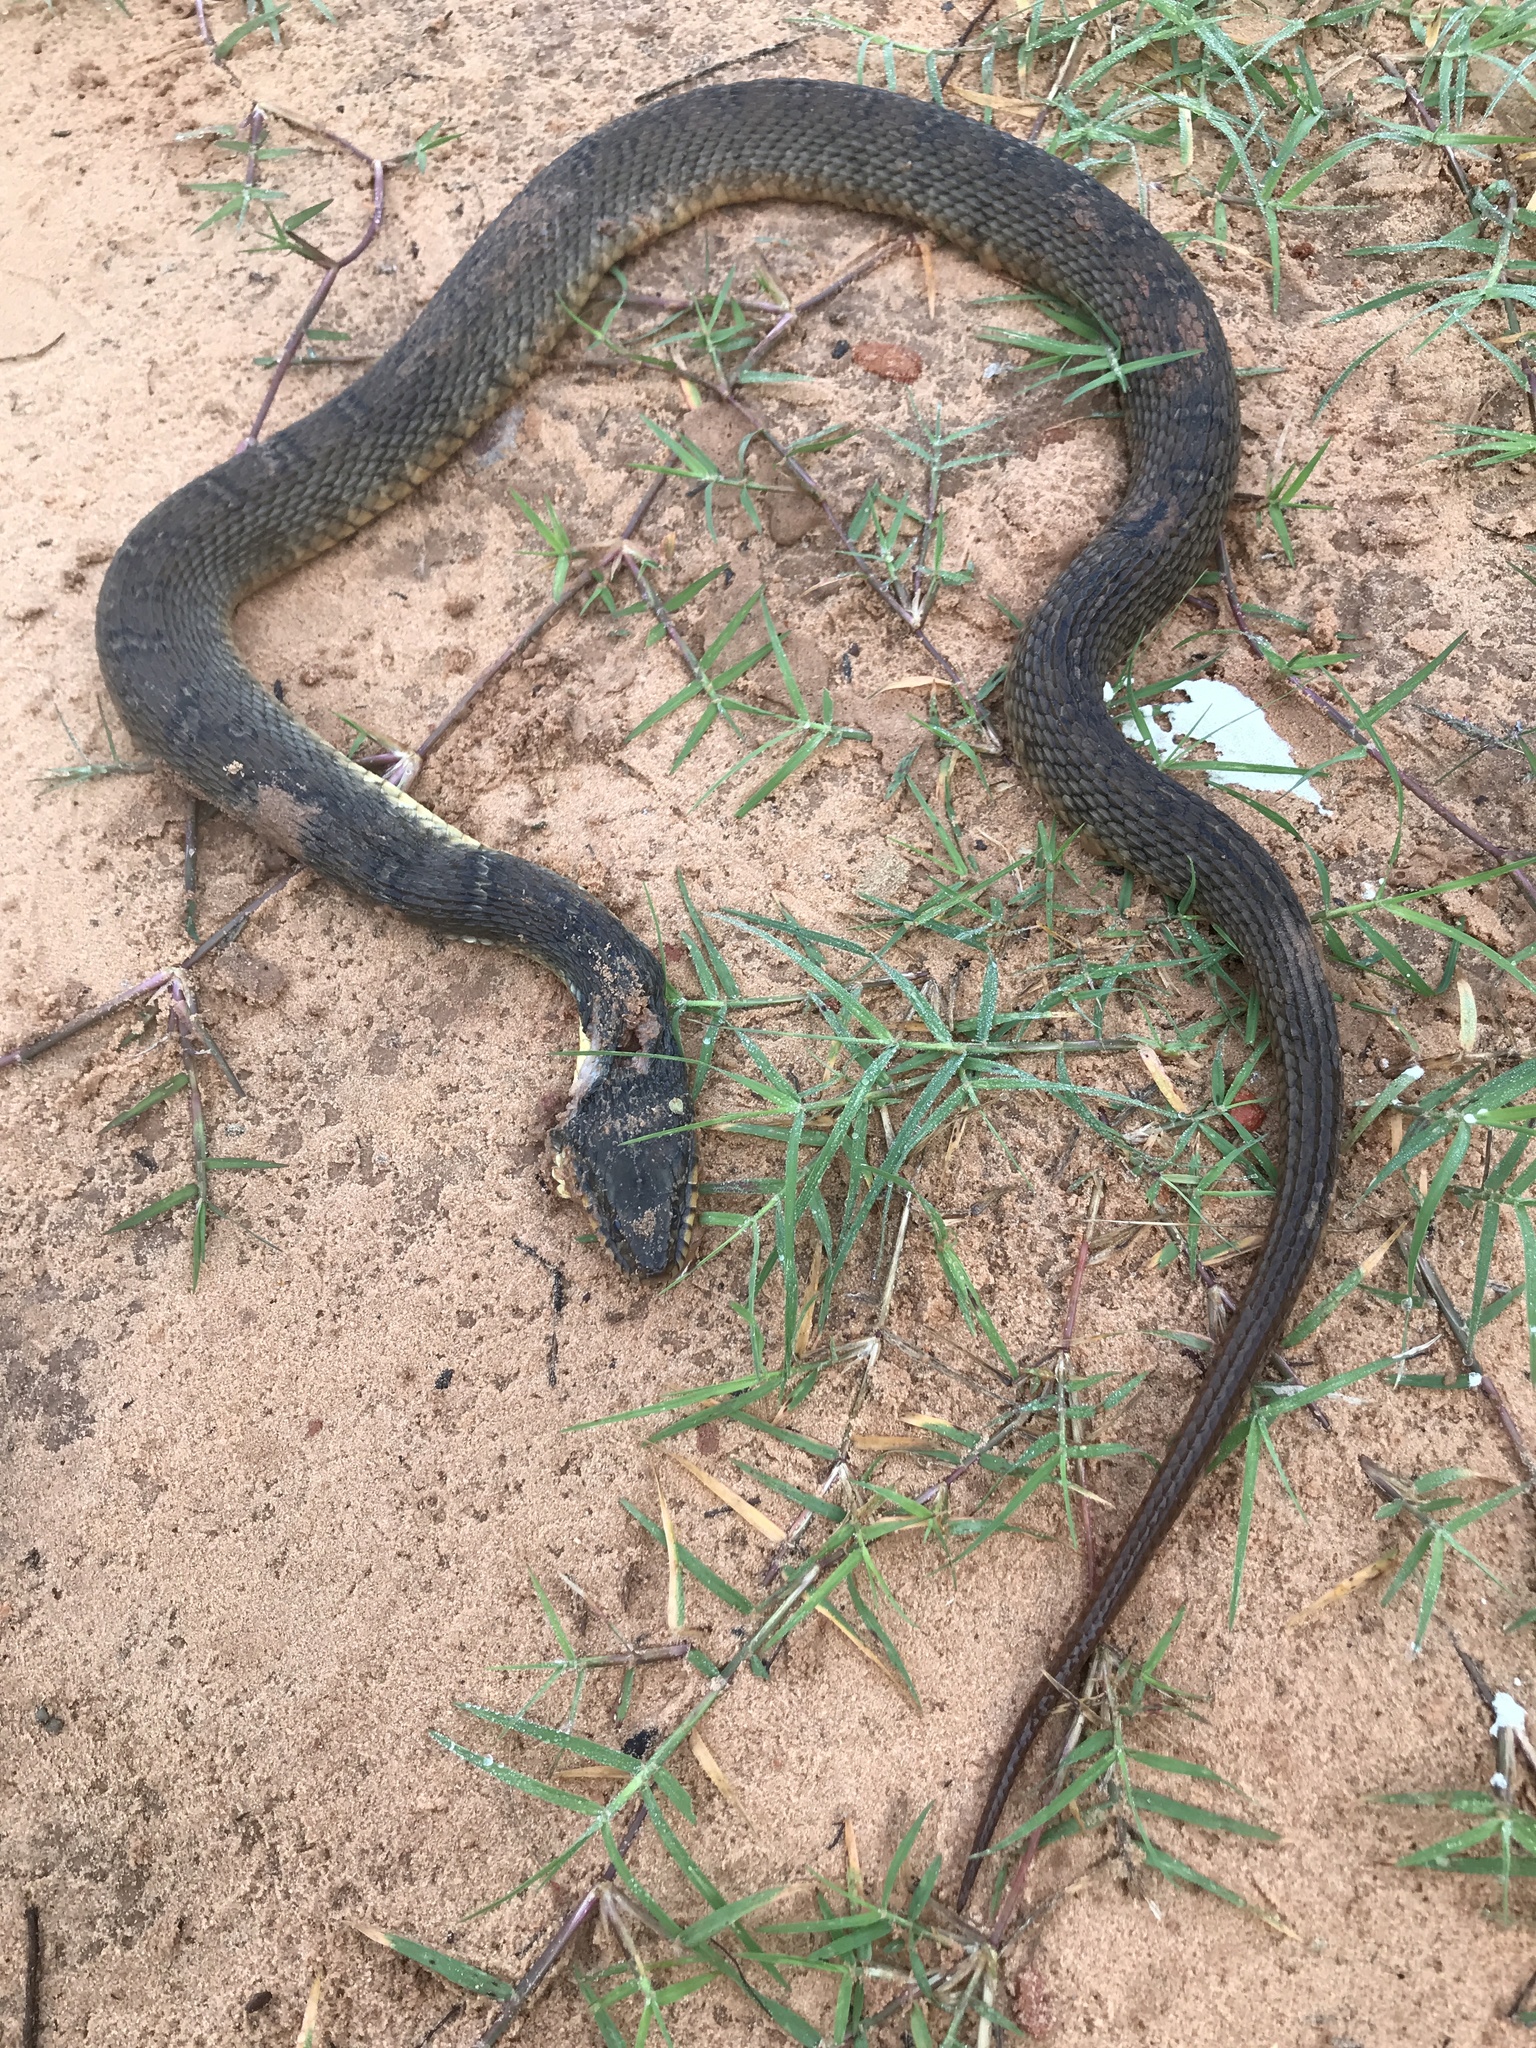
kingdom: Animalia
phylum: Chordata
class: Squamata
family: Colubridae
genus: Nerodia
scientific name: Nerodia erythrogaster
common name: Plainbelly water snake
